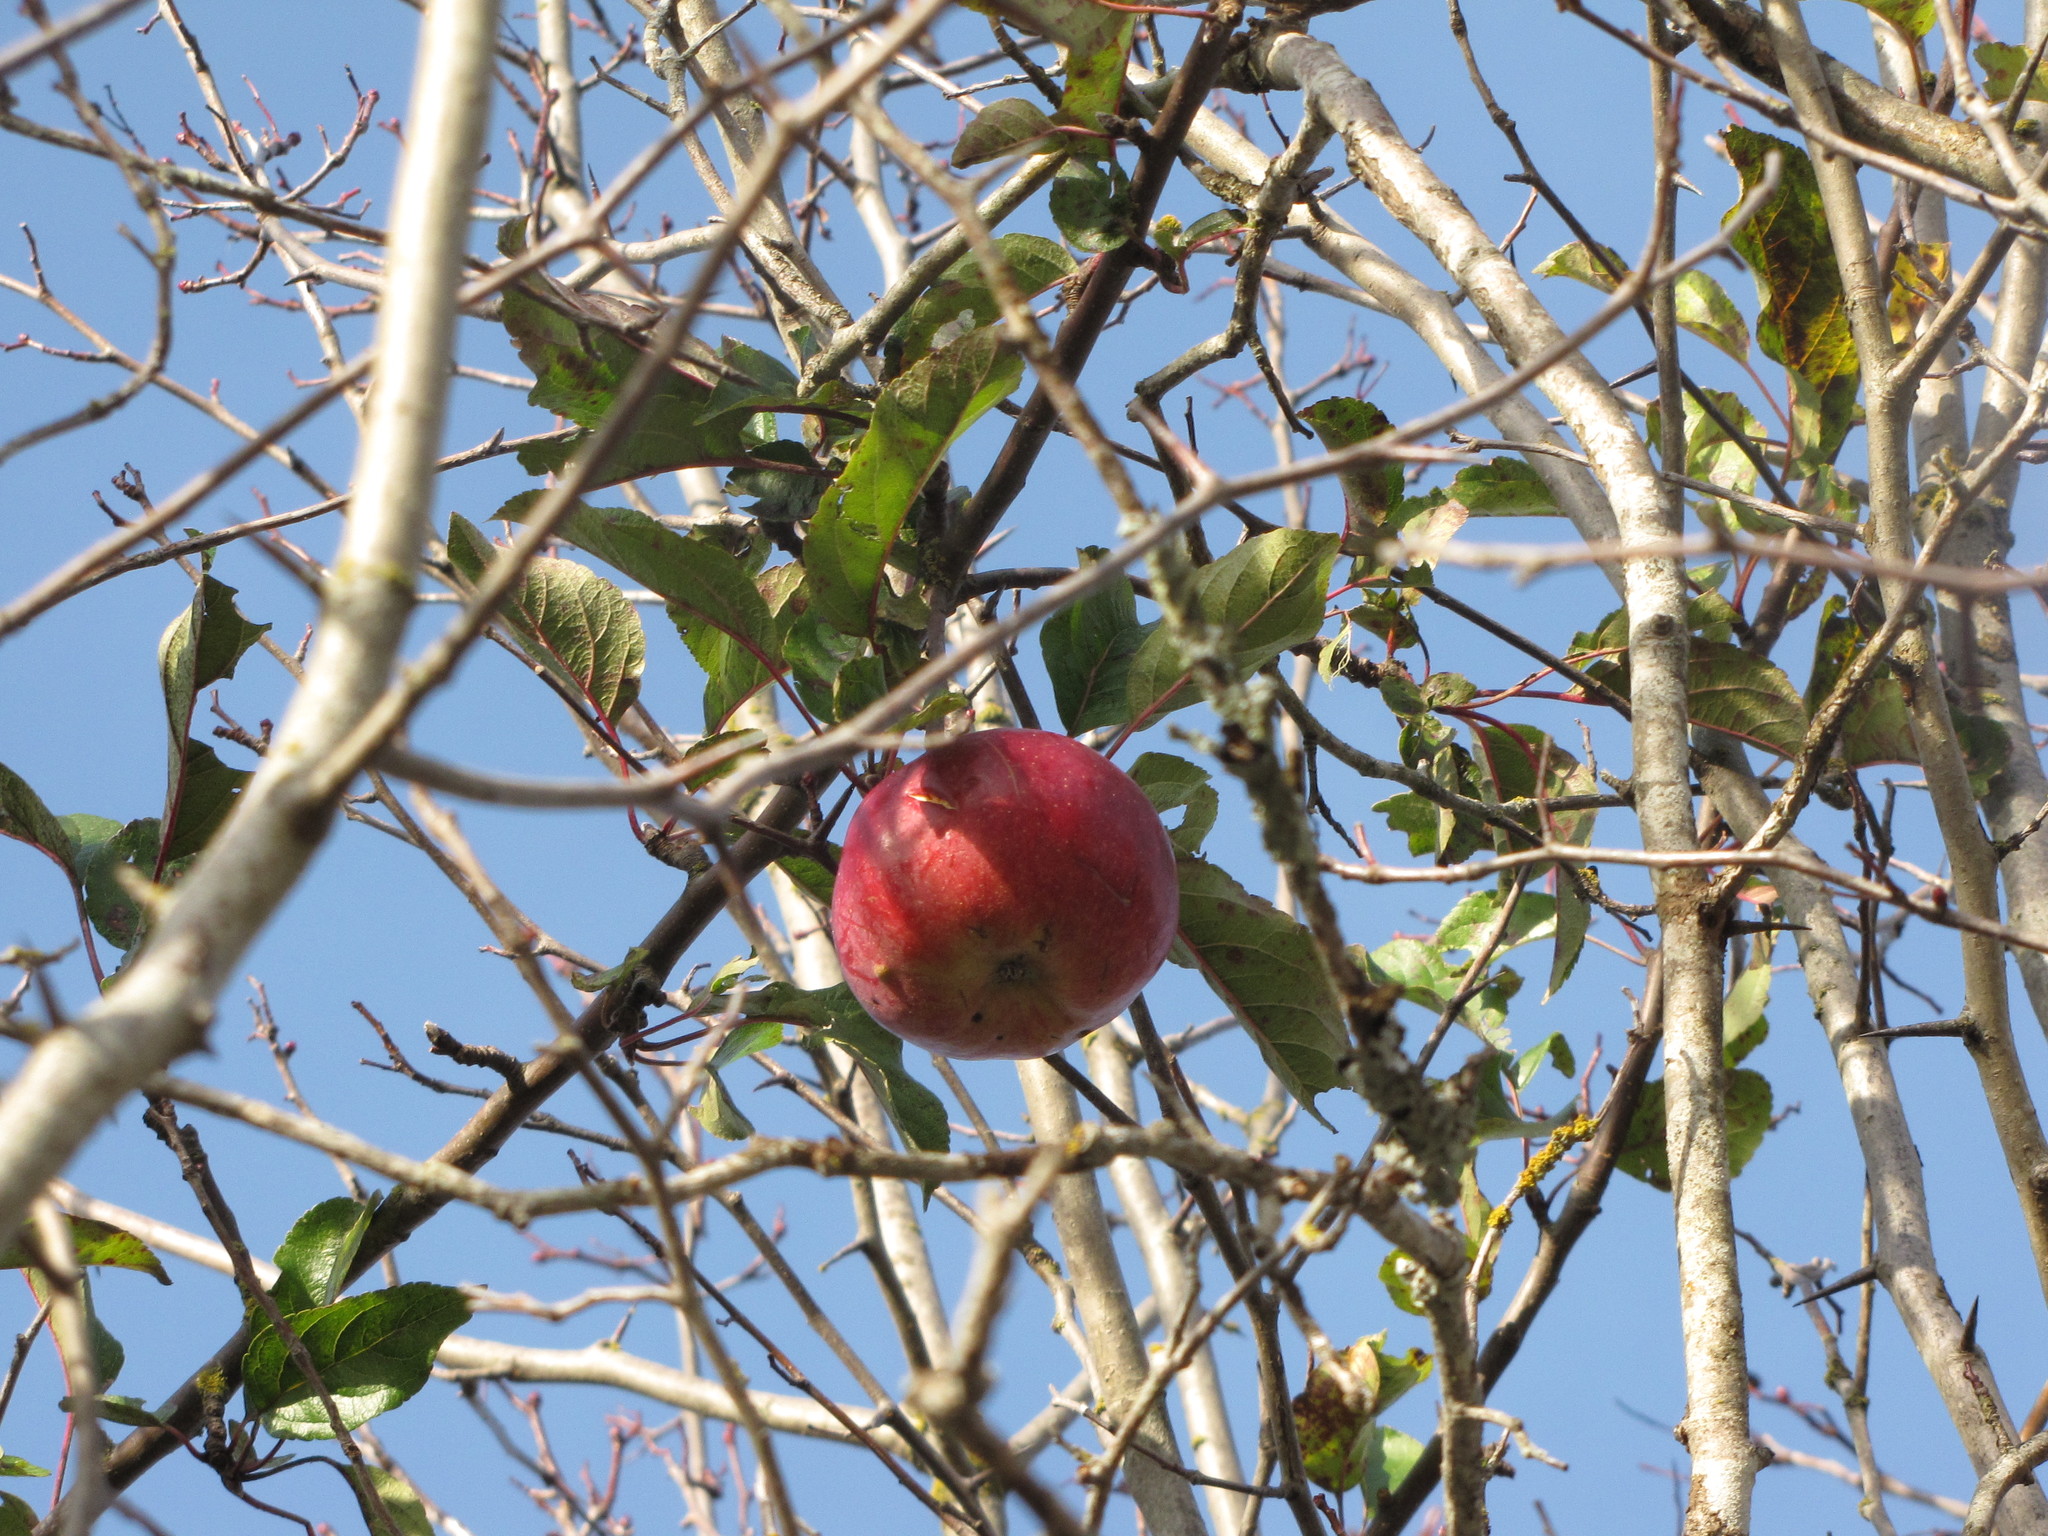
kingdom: Plantae
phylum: Tracheophyta
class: Magnoliopsida
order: Rosales
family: Rosaceae
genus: Malus
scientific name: Malus domestica
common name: Apple
